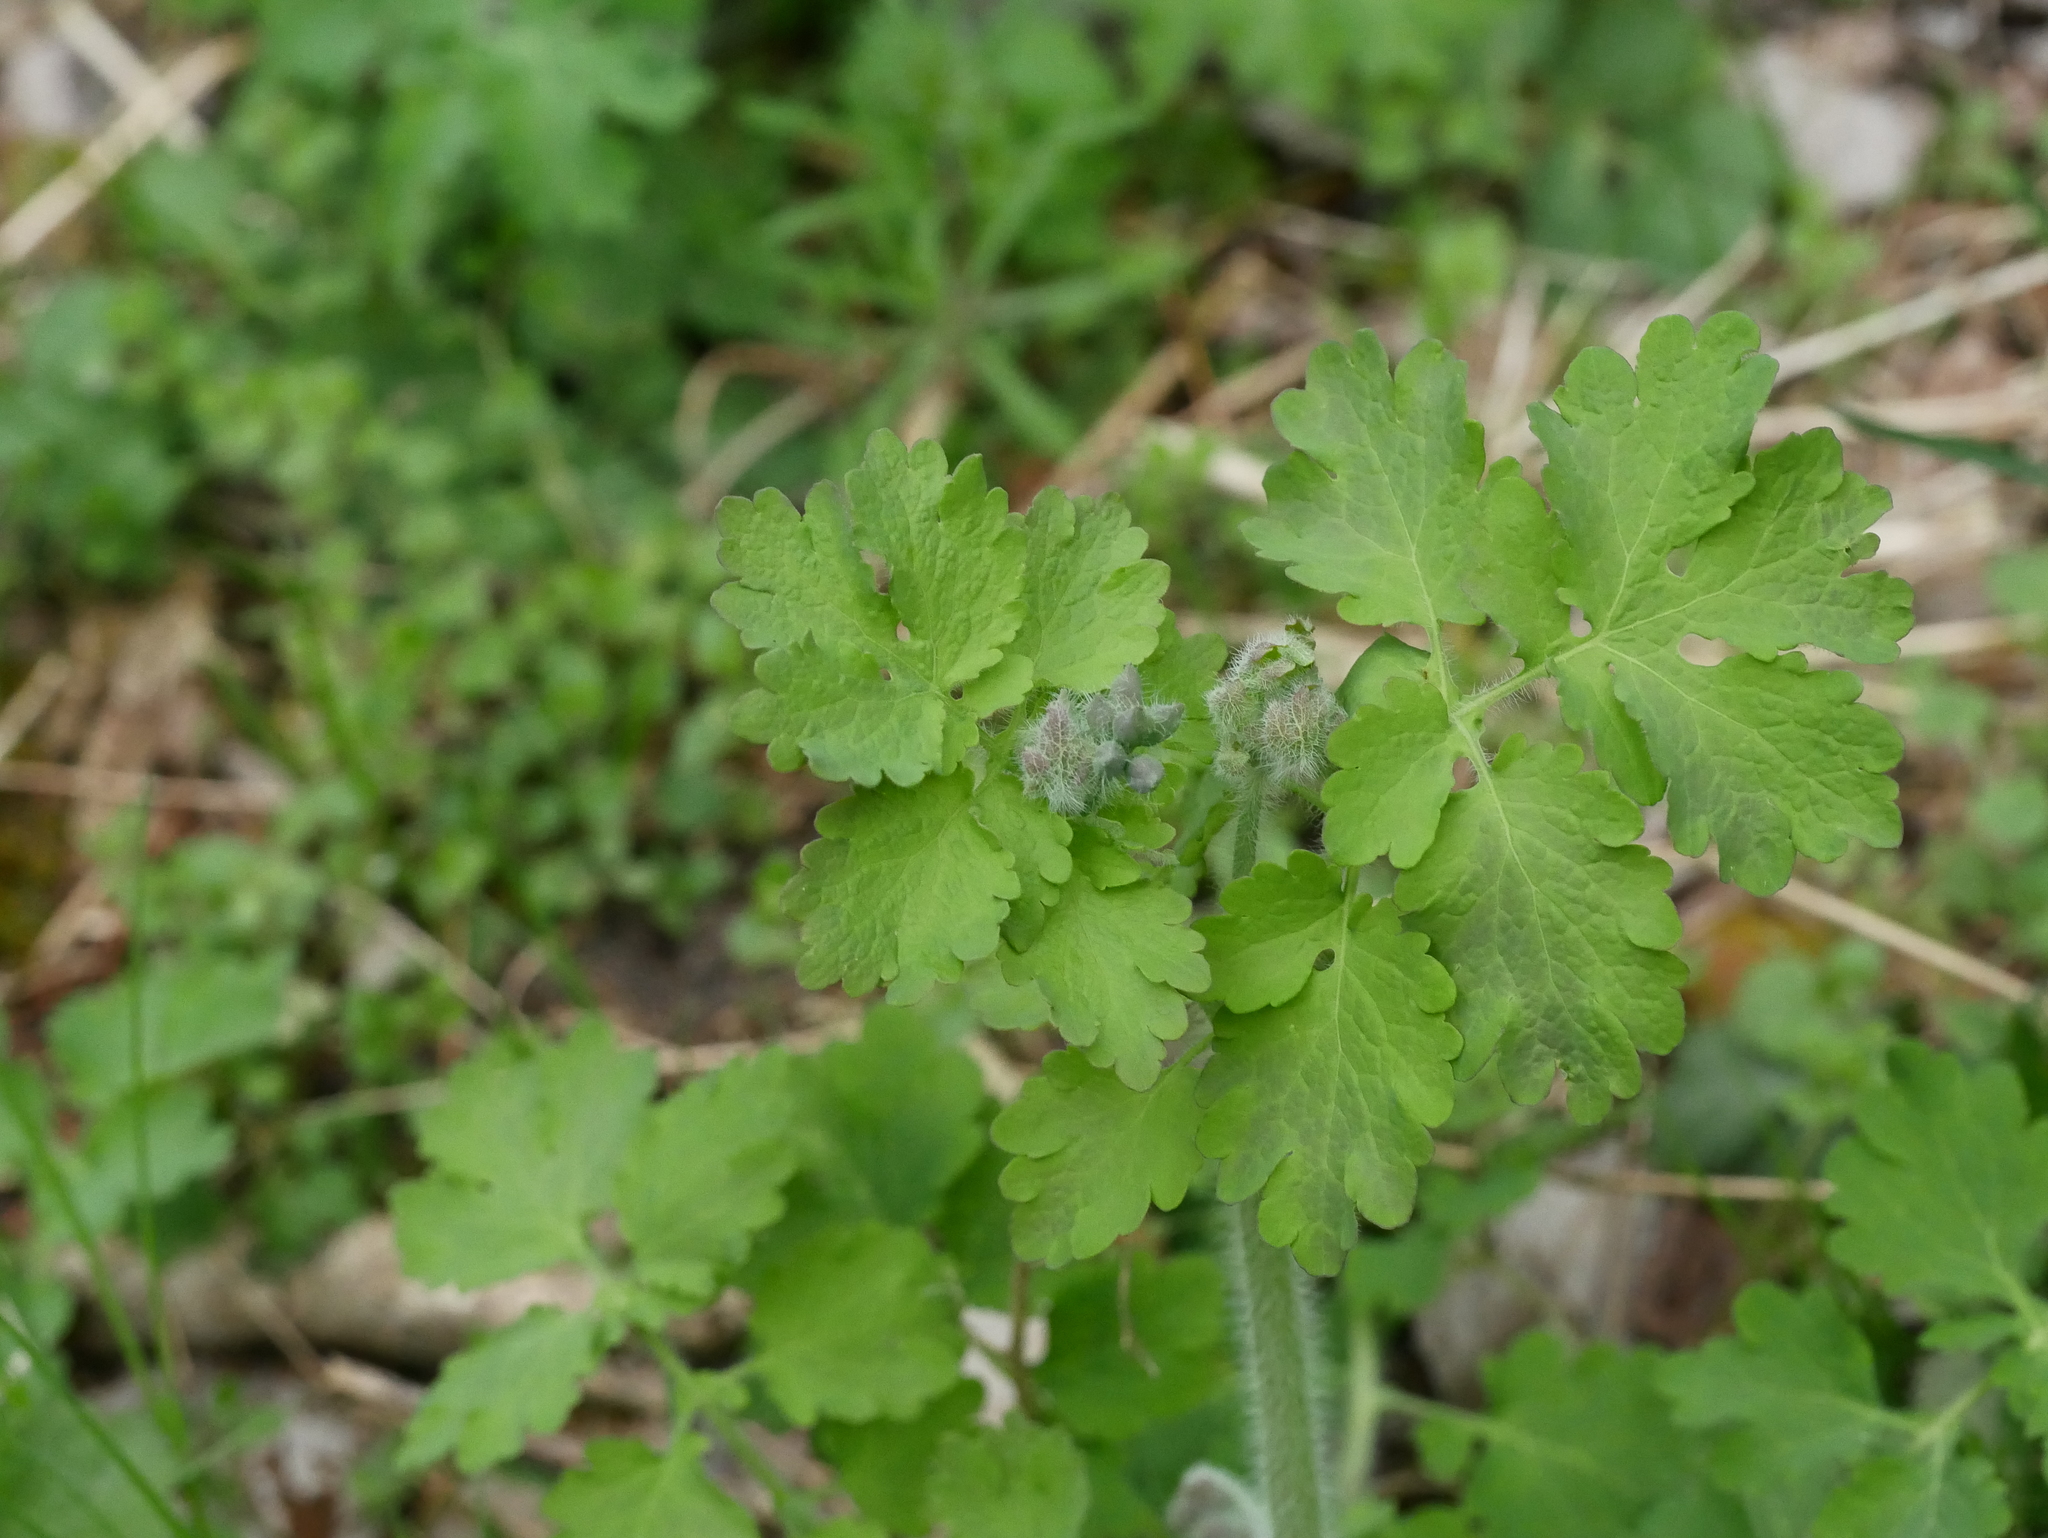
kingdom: Plantae
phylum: Tracheophyta
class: Magnoliopsida
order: Ranunculales
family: Papaveraceae
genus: Chelidonium
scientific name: Chelidonium majus
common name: Greater celandine
